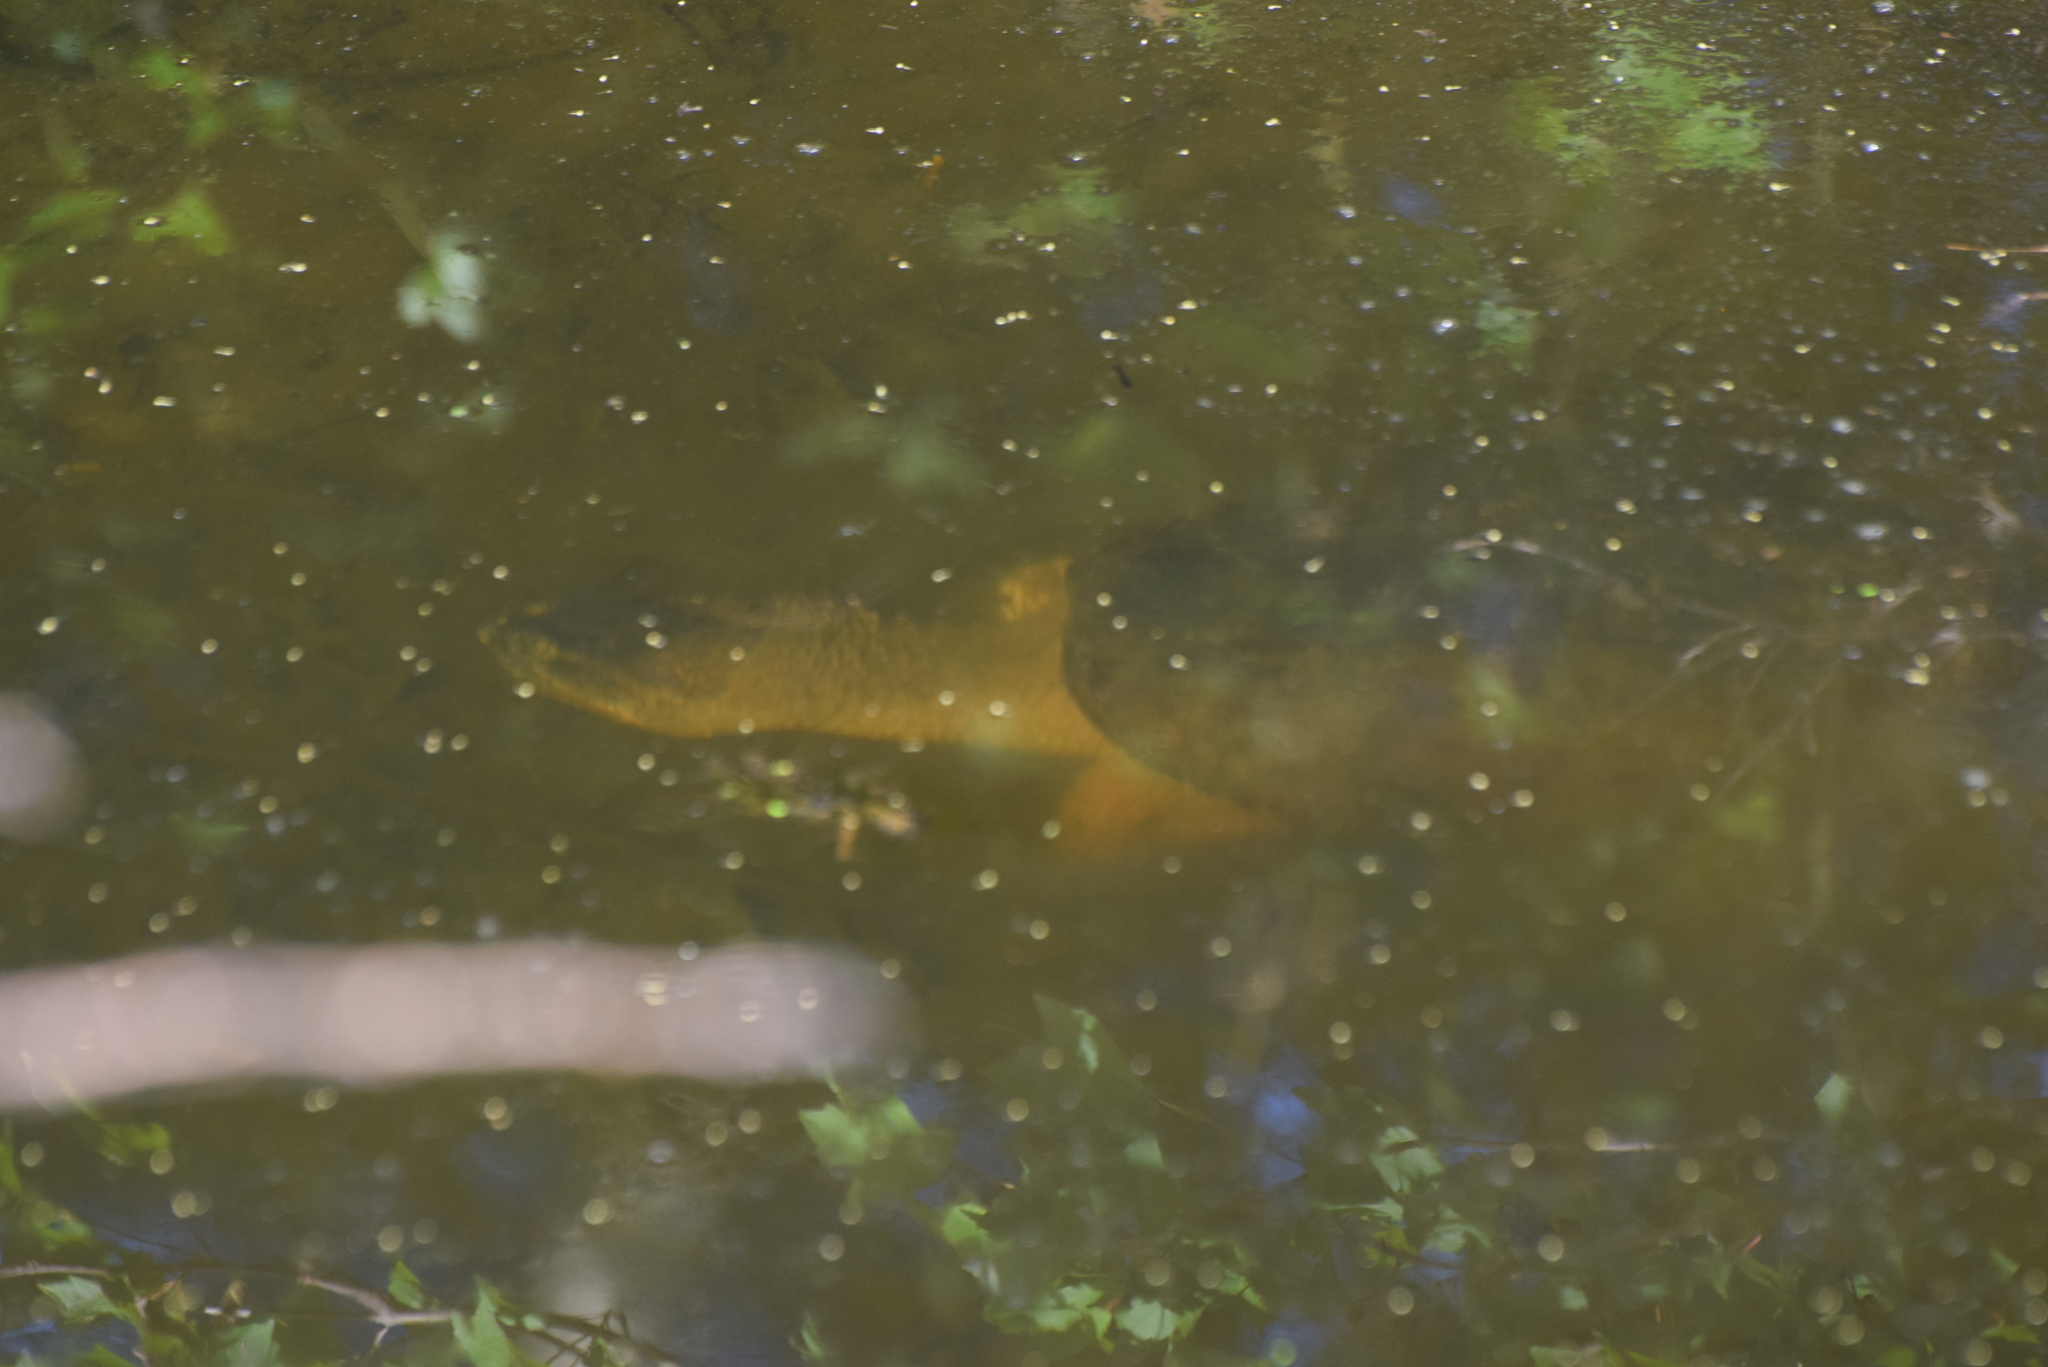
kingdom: Animalia
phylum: Chordata
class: Testudines
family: Chelydridae
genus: Chelydra
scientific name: Chelydra serpentina
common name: Common snapping turtle
